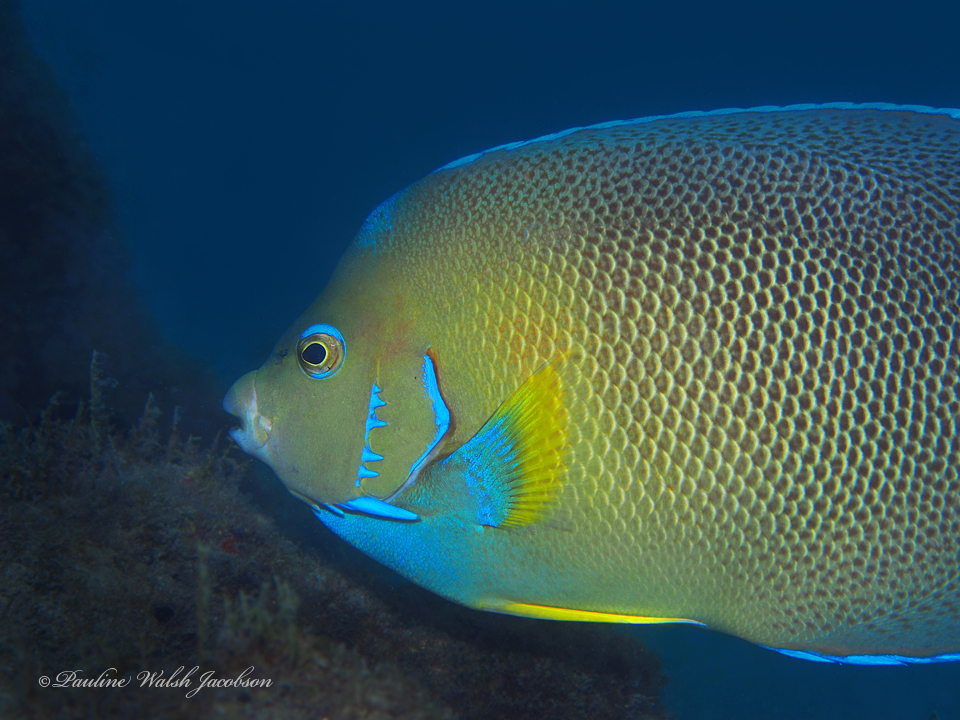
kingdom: Animalia
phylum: Chordata
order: Perciformes
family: Pomacanthidae
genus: Holacanthus
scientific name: Holacanthus ciliaris
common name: Queen angelfish
